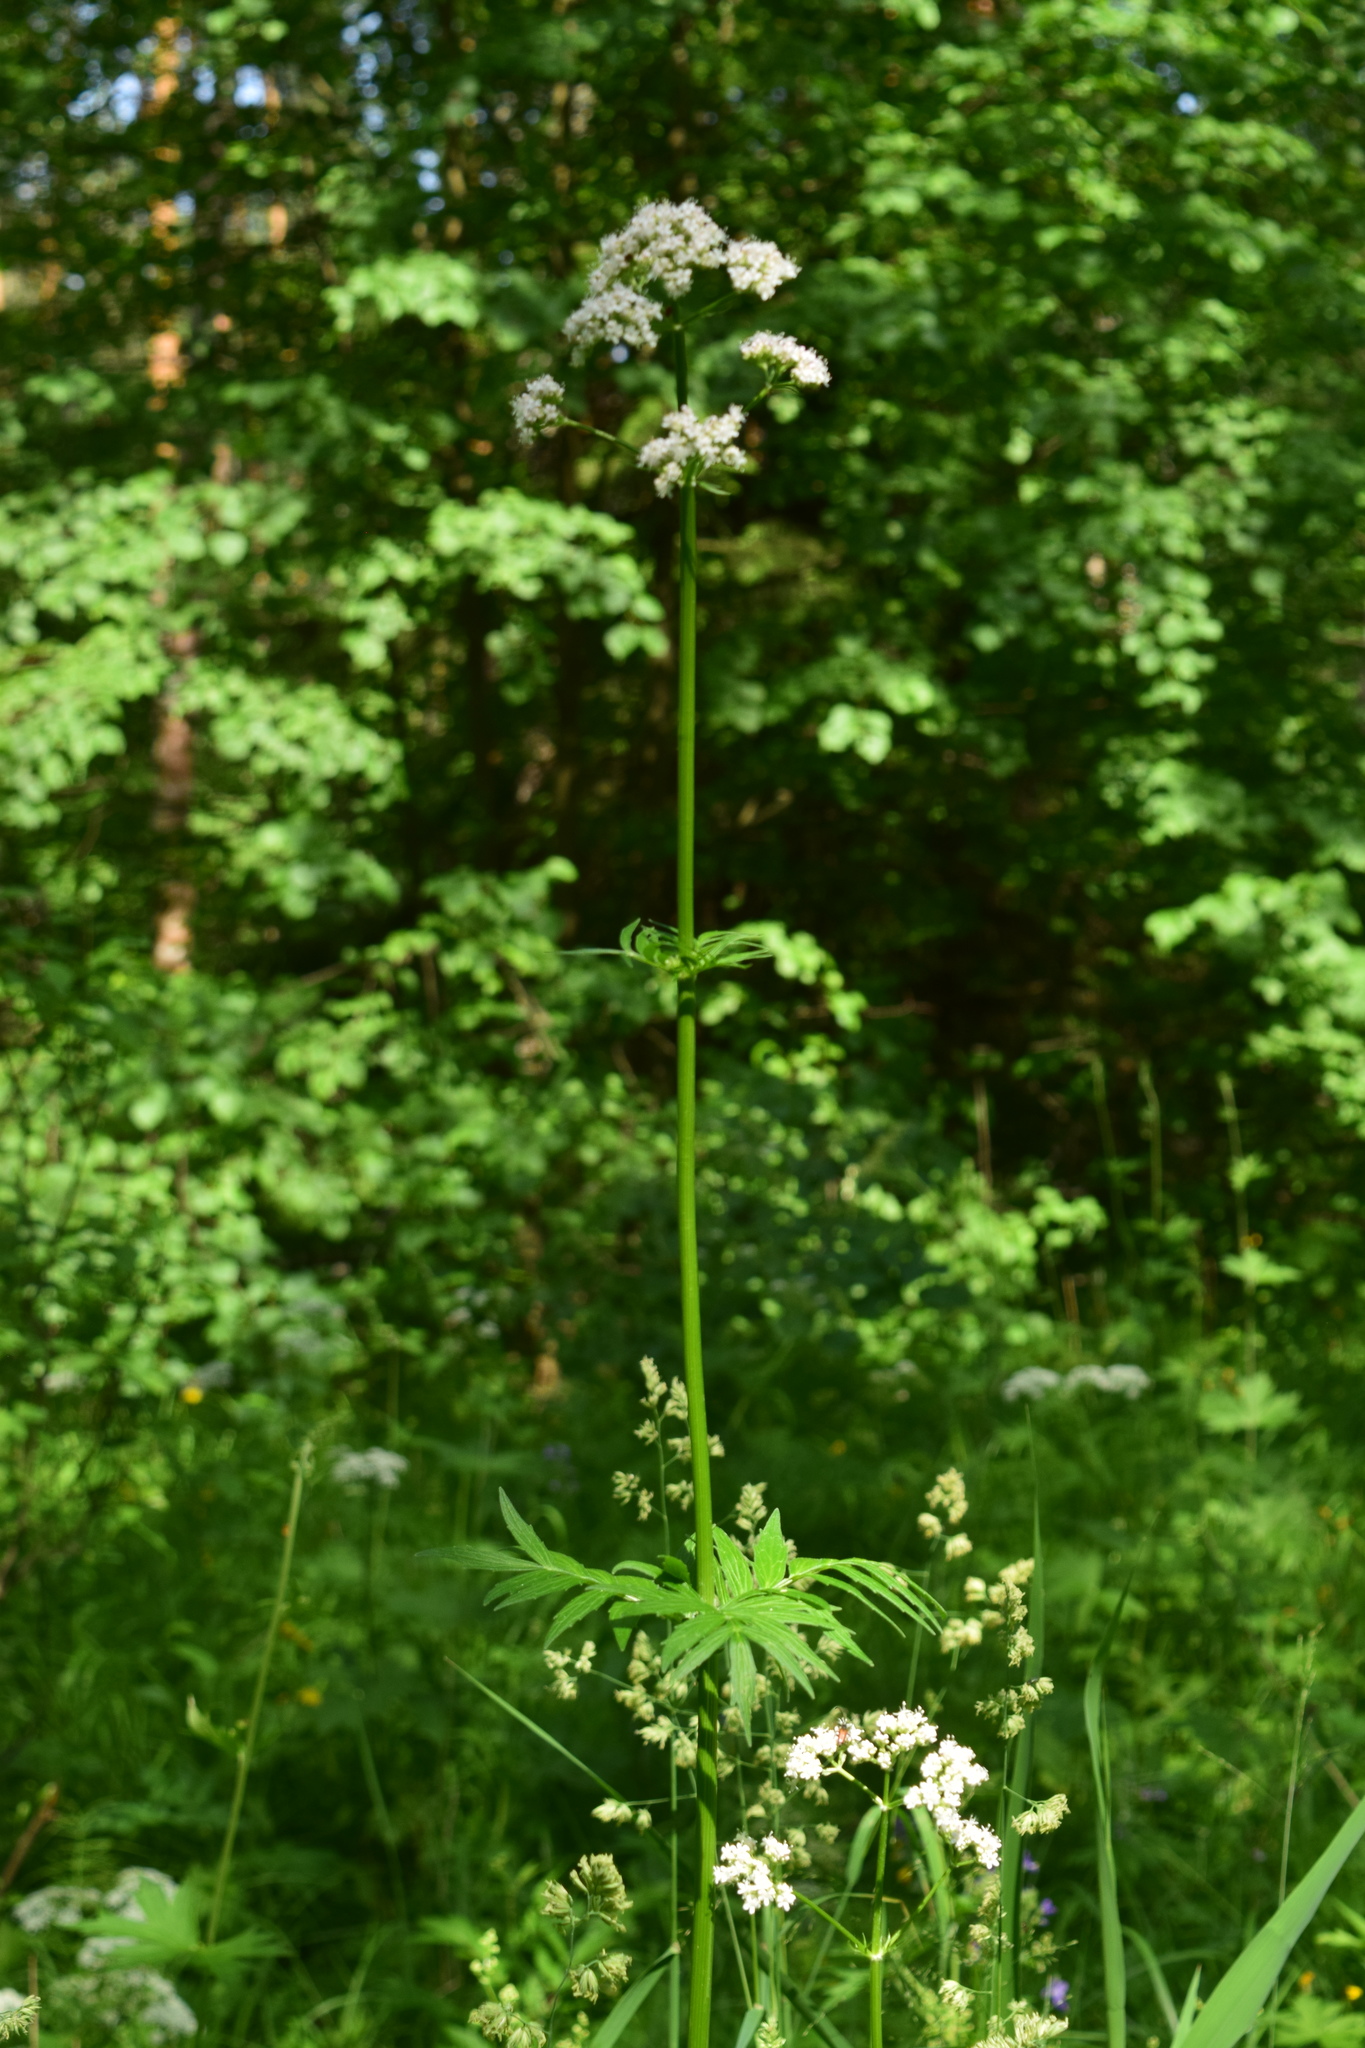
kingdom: Plantae
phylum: Tracheophyta
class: Magnoliopsida
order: Dipsacales
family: Caprifoliaceae
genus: Valeriana
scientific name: Valeriana officinalis
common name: Common valerian
